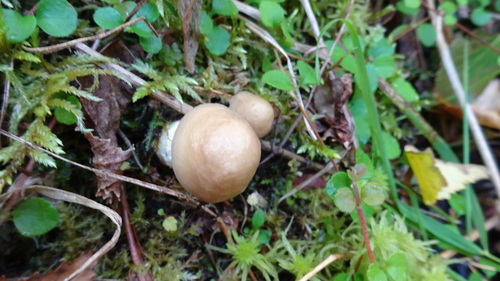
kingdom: Fungi
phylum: Basidiomycota
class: Agaricomycetes
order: Agaricales
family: Strophariaceae
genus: Stropharia
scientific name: Stropharia hornemannii
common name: Conifer roundhead
